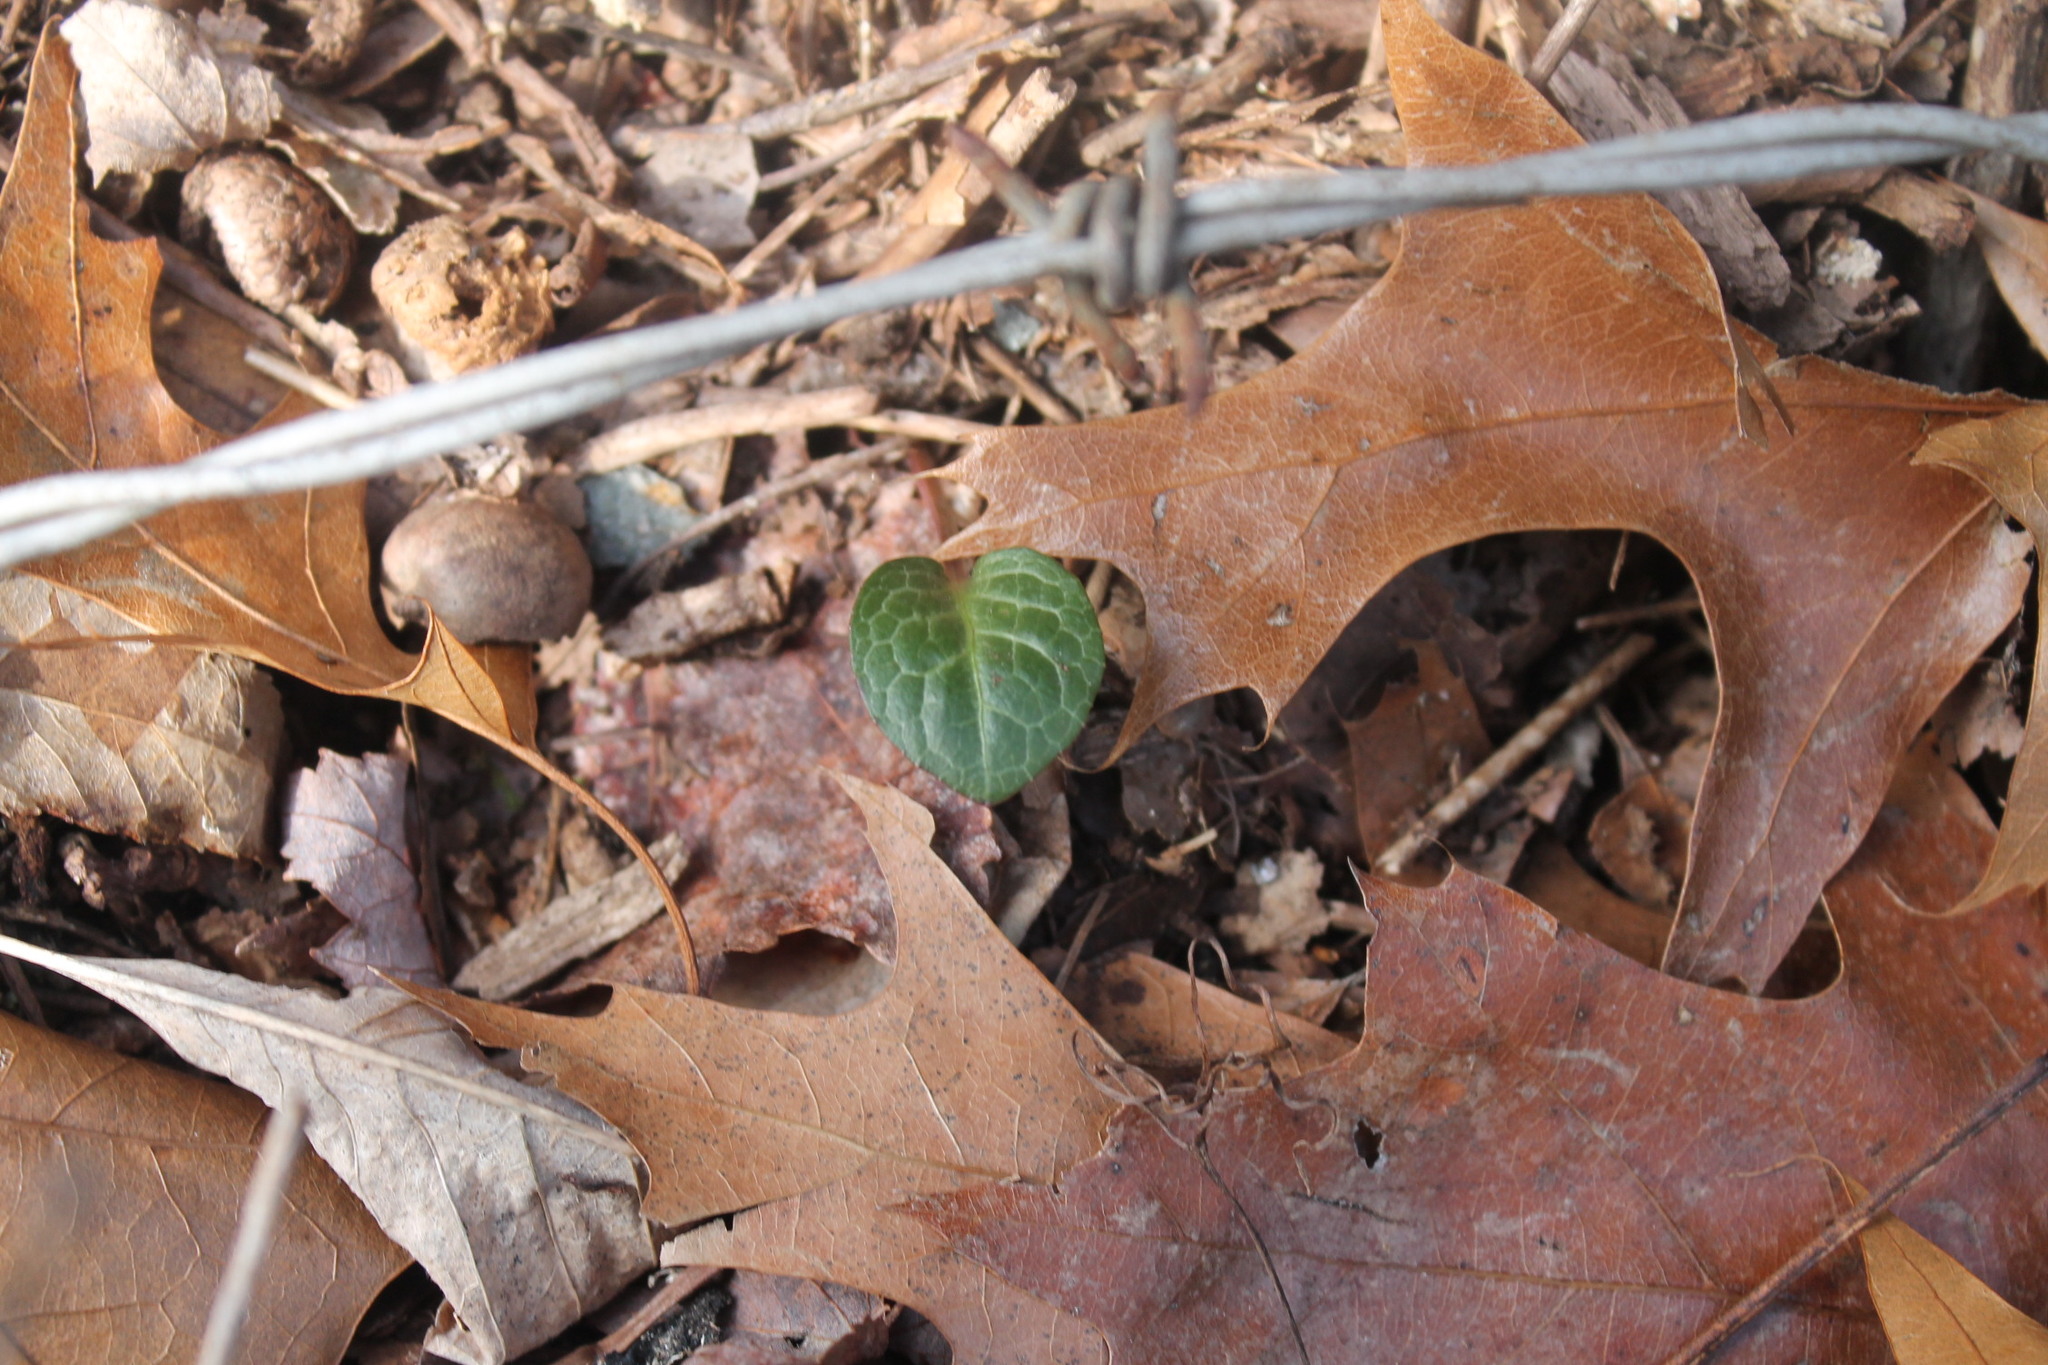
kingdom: Plantae
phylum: Tracheophyta
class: Magnoliopsida
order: Ericales
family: Ericaceae
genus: Pyrola
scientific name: Pyrola americana
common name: American wintergreen
